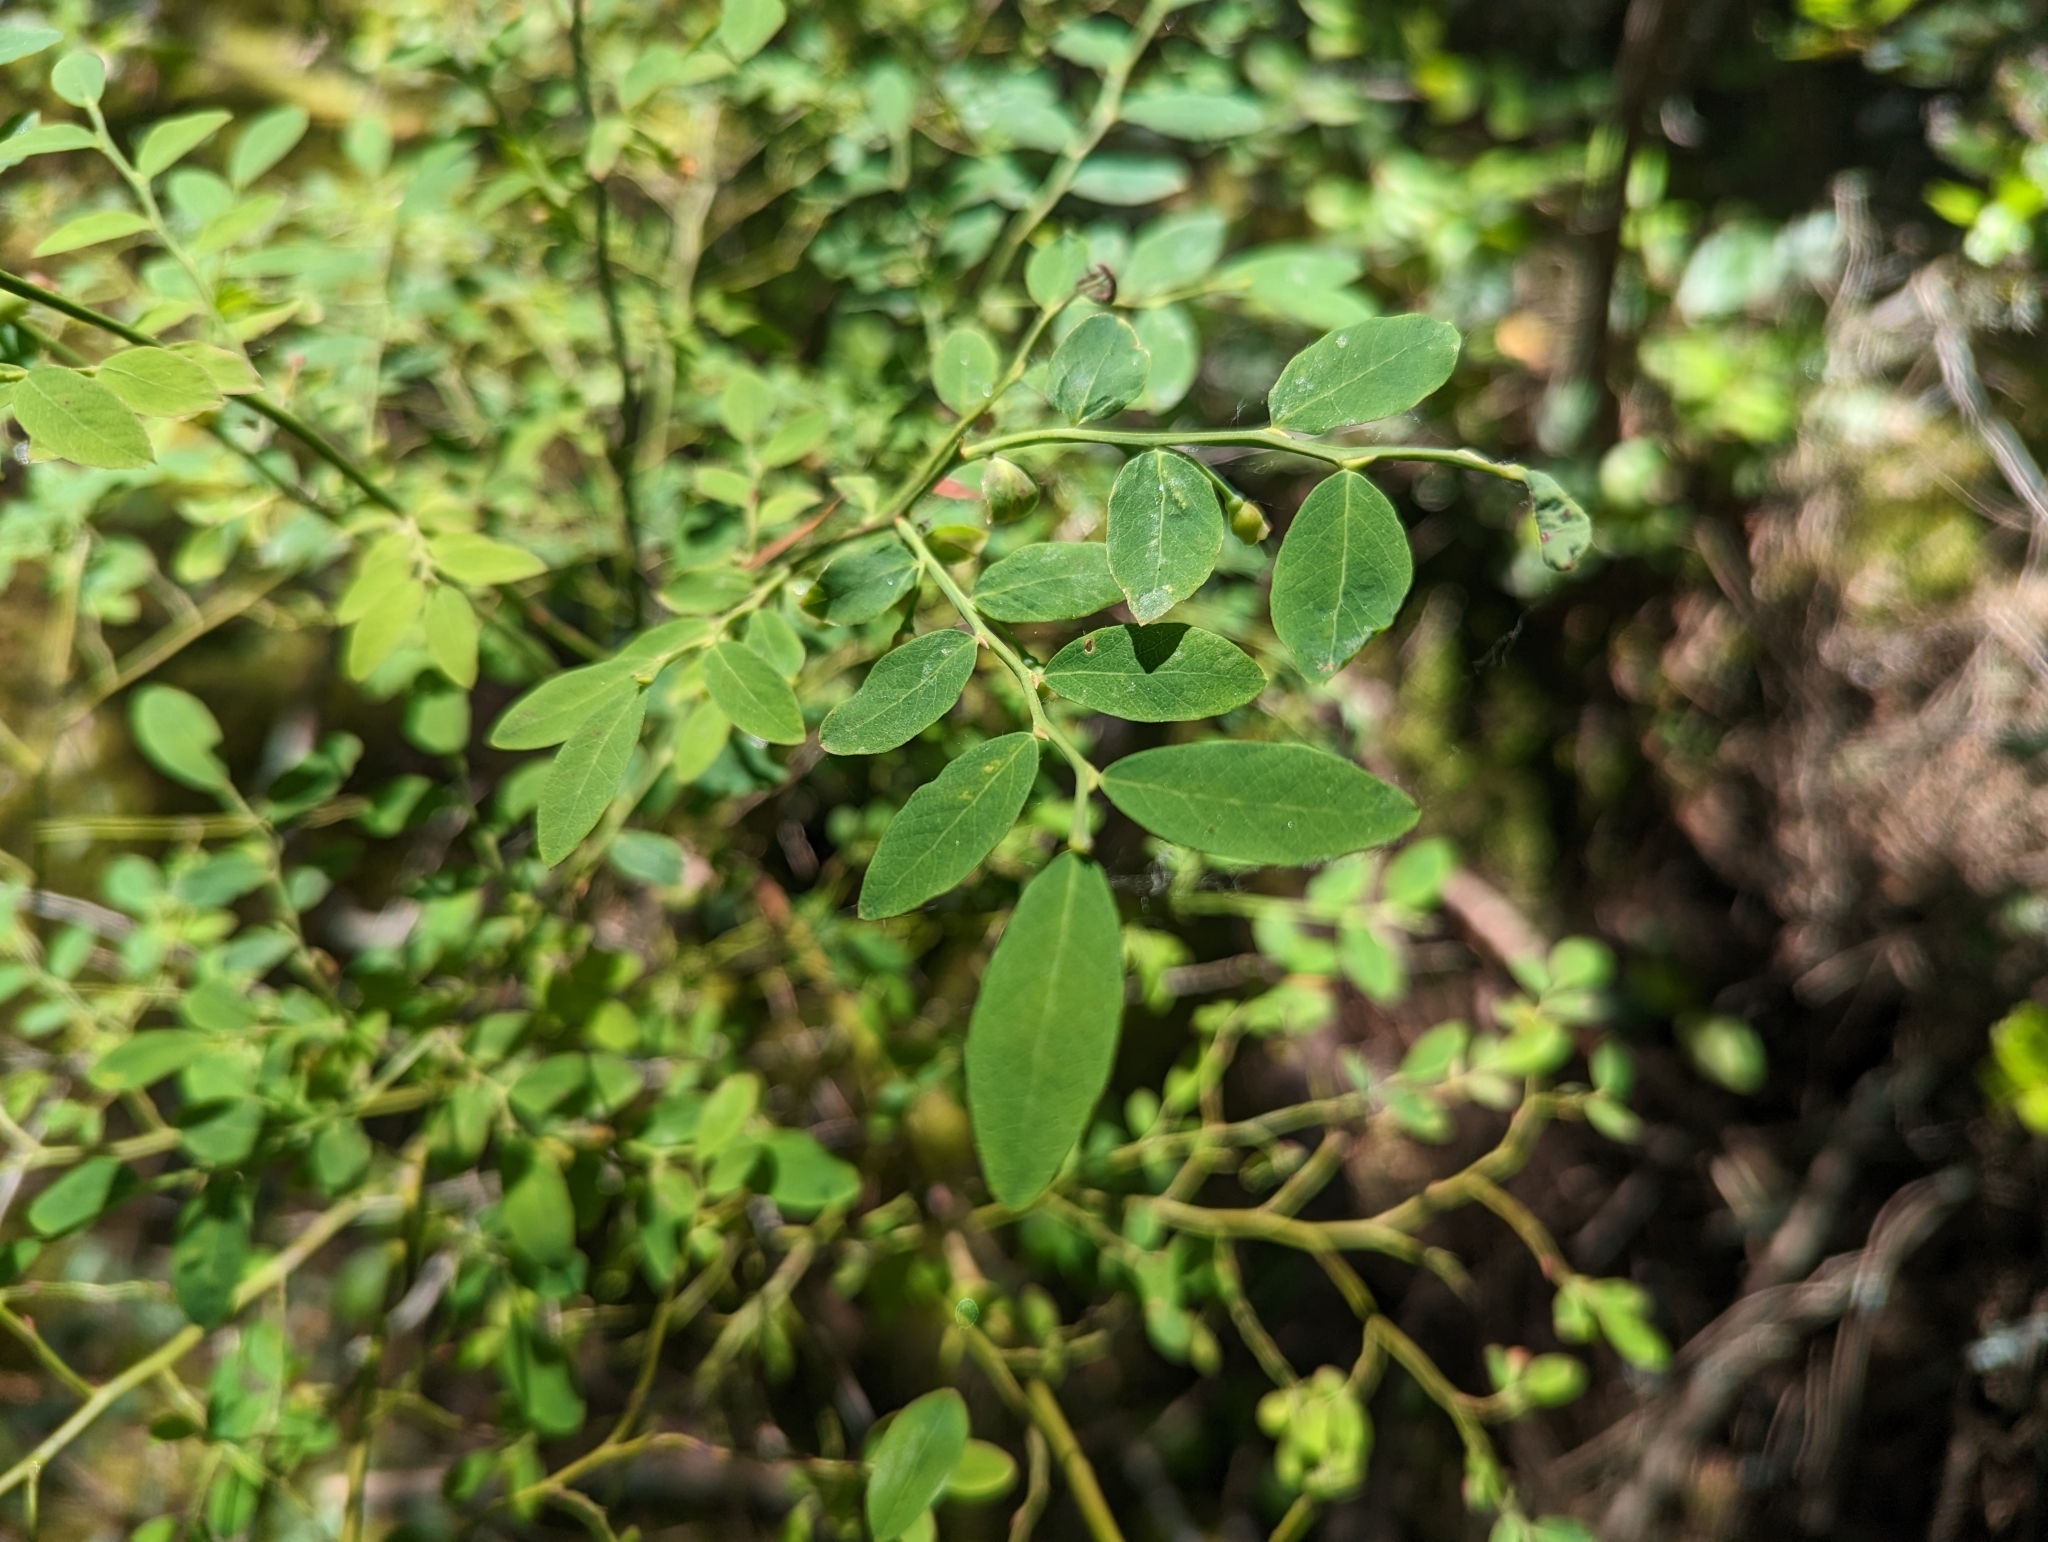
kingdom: Plantae
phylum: Tracheophyta
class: Magnoliopsida
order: Ericales
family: Ericaceae
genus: Vaccinium
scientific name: Vaccinium parvifolium
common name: Red-huckleberry
